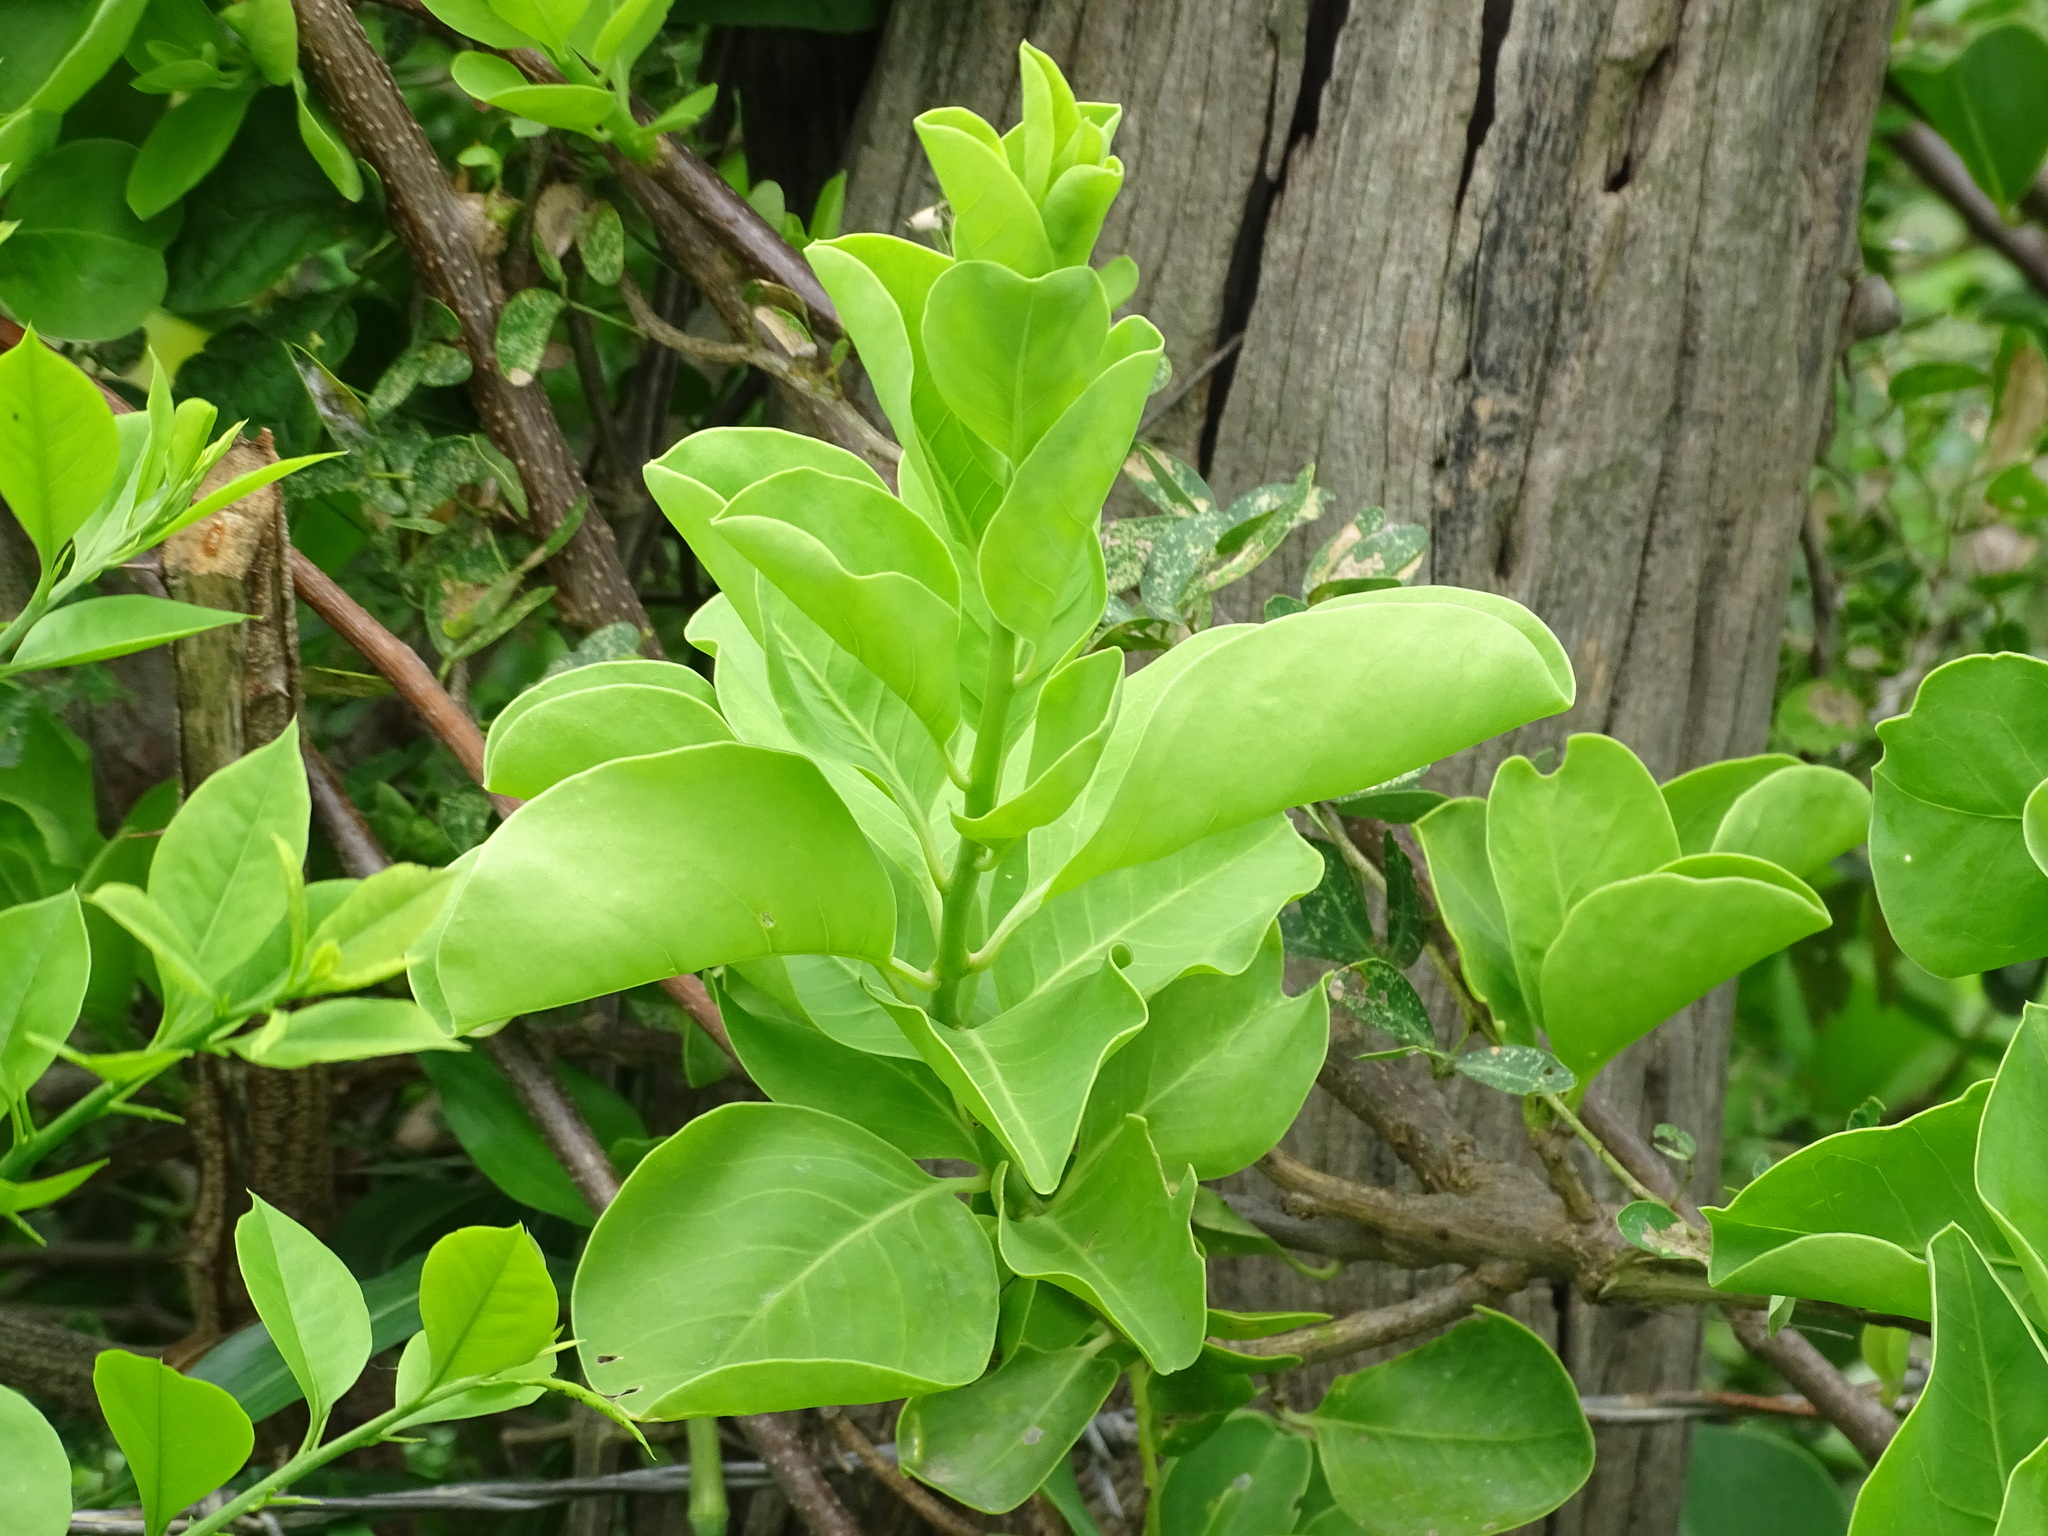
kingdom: Plantae
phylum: Tracheophyta
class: Magnoliopsida
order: Lamiales
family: Bignoniaceae
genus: Amphilophium
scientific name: Amphilophium crucigerum
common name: Monkey comb
